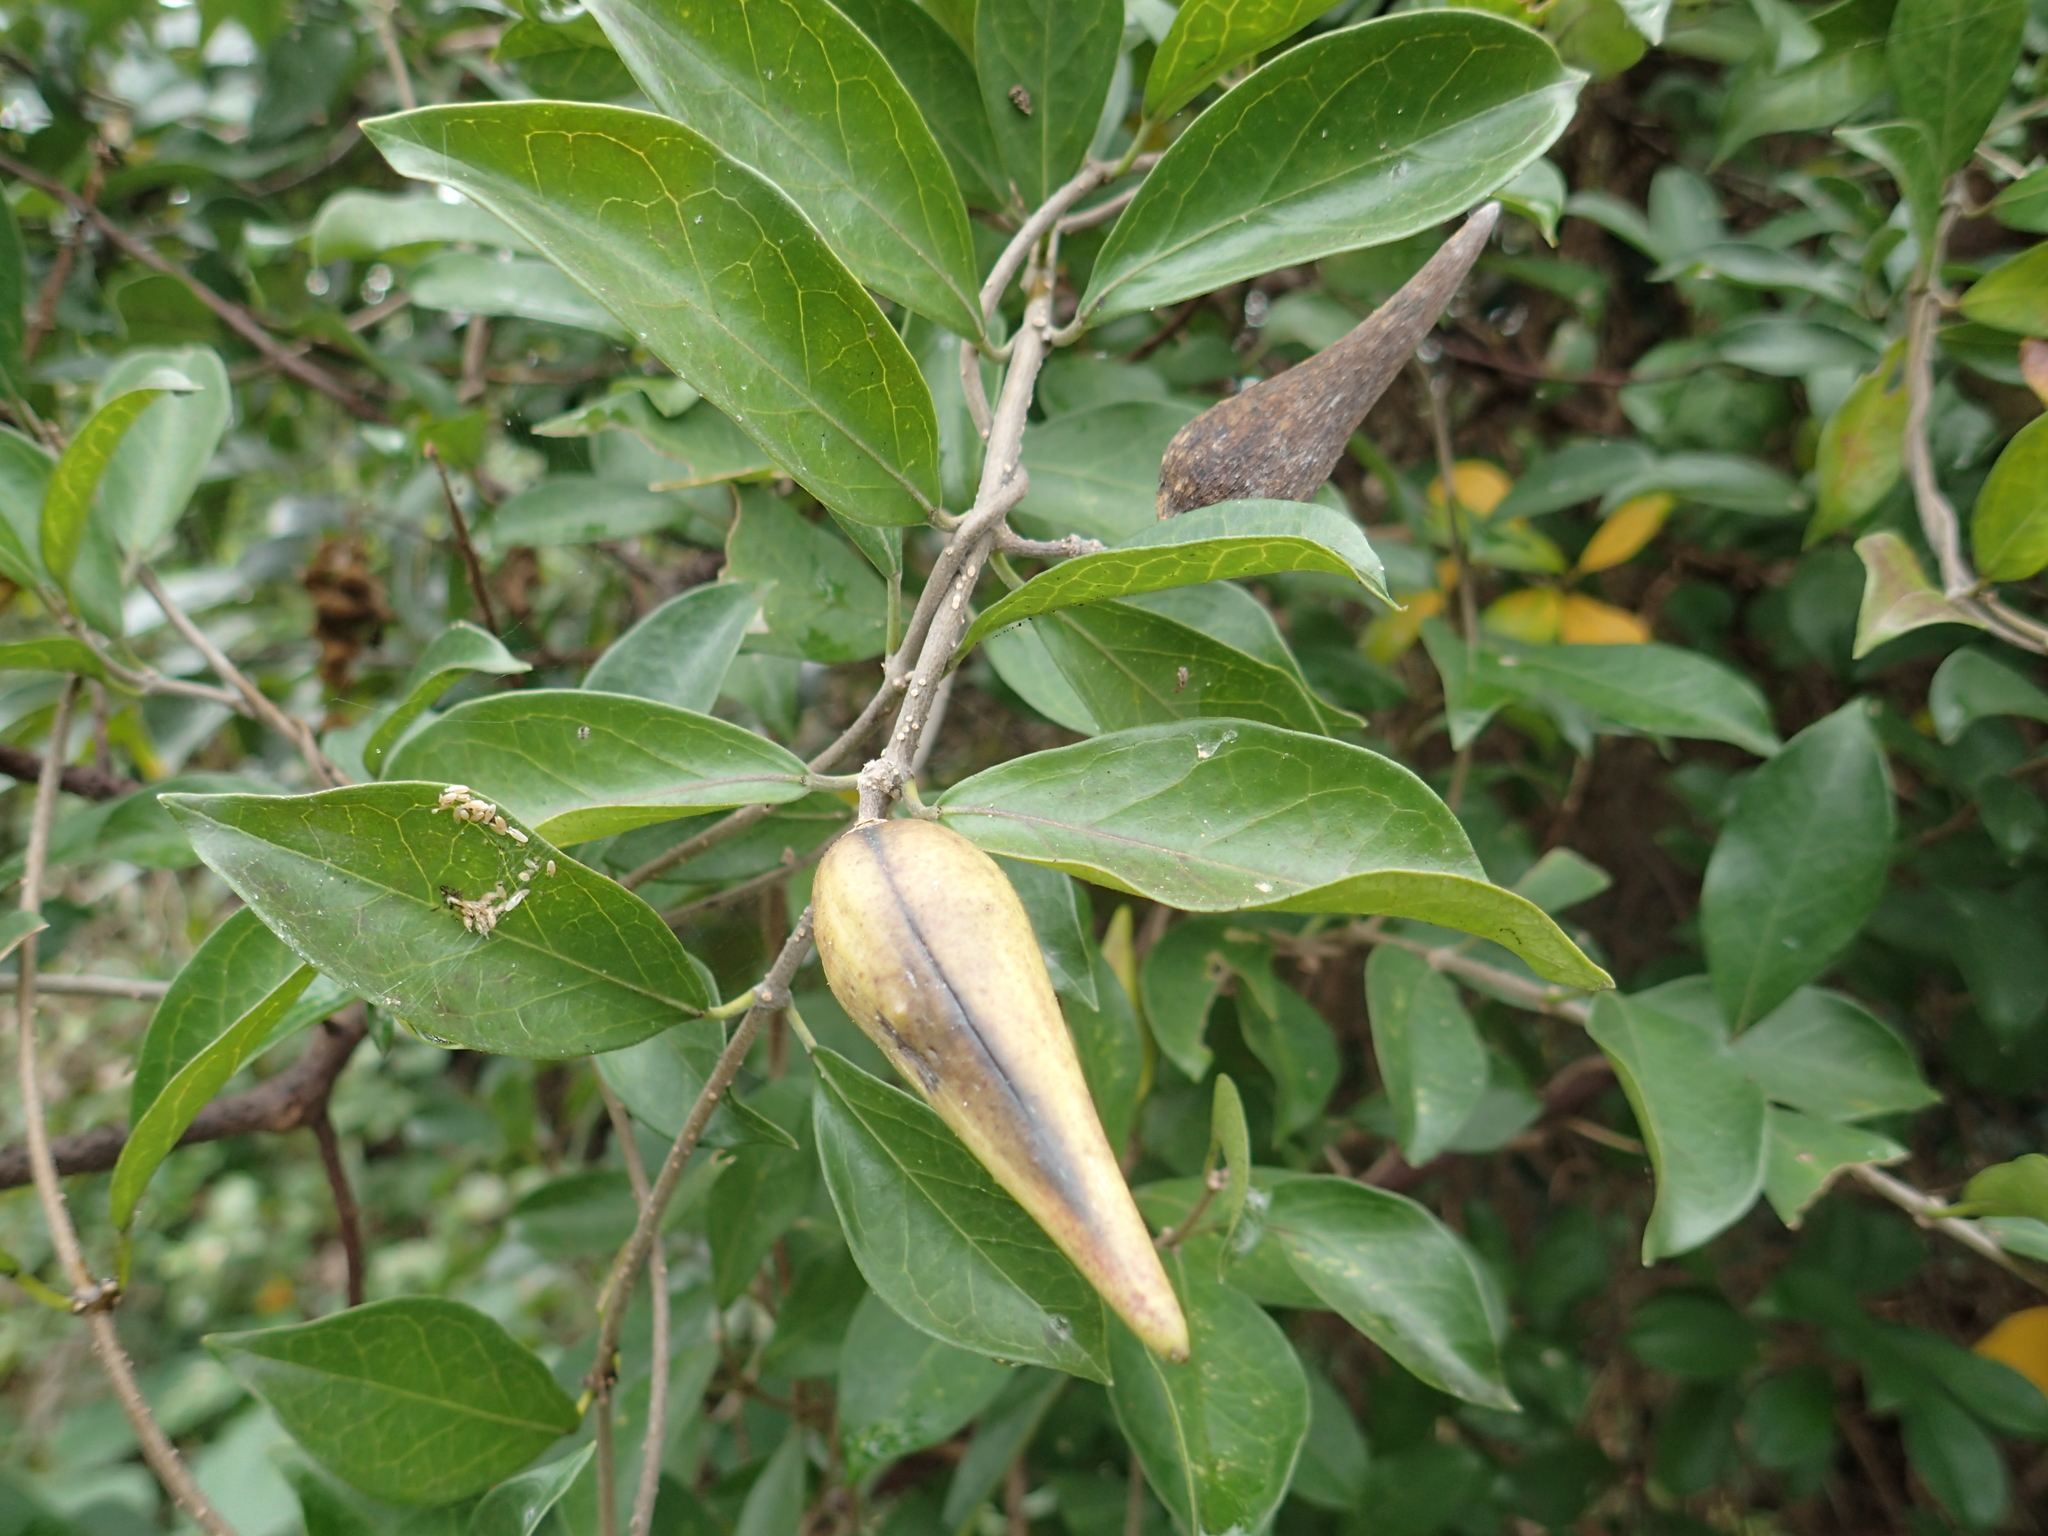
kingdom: Plantae
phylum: Tracheophyta
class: Magnoliopsida
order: Gentianales
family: Apocynaceae
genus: Gymnema
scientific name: Gymnema sylvestre
